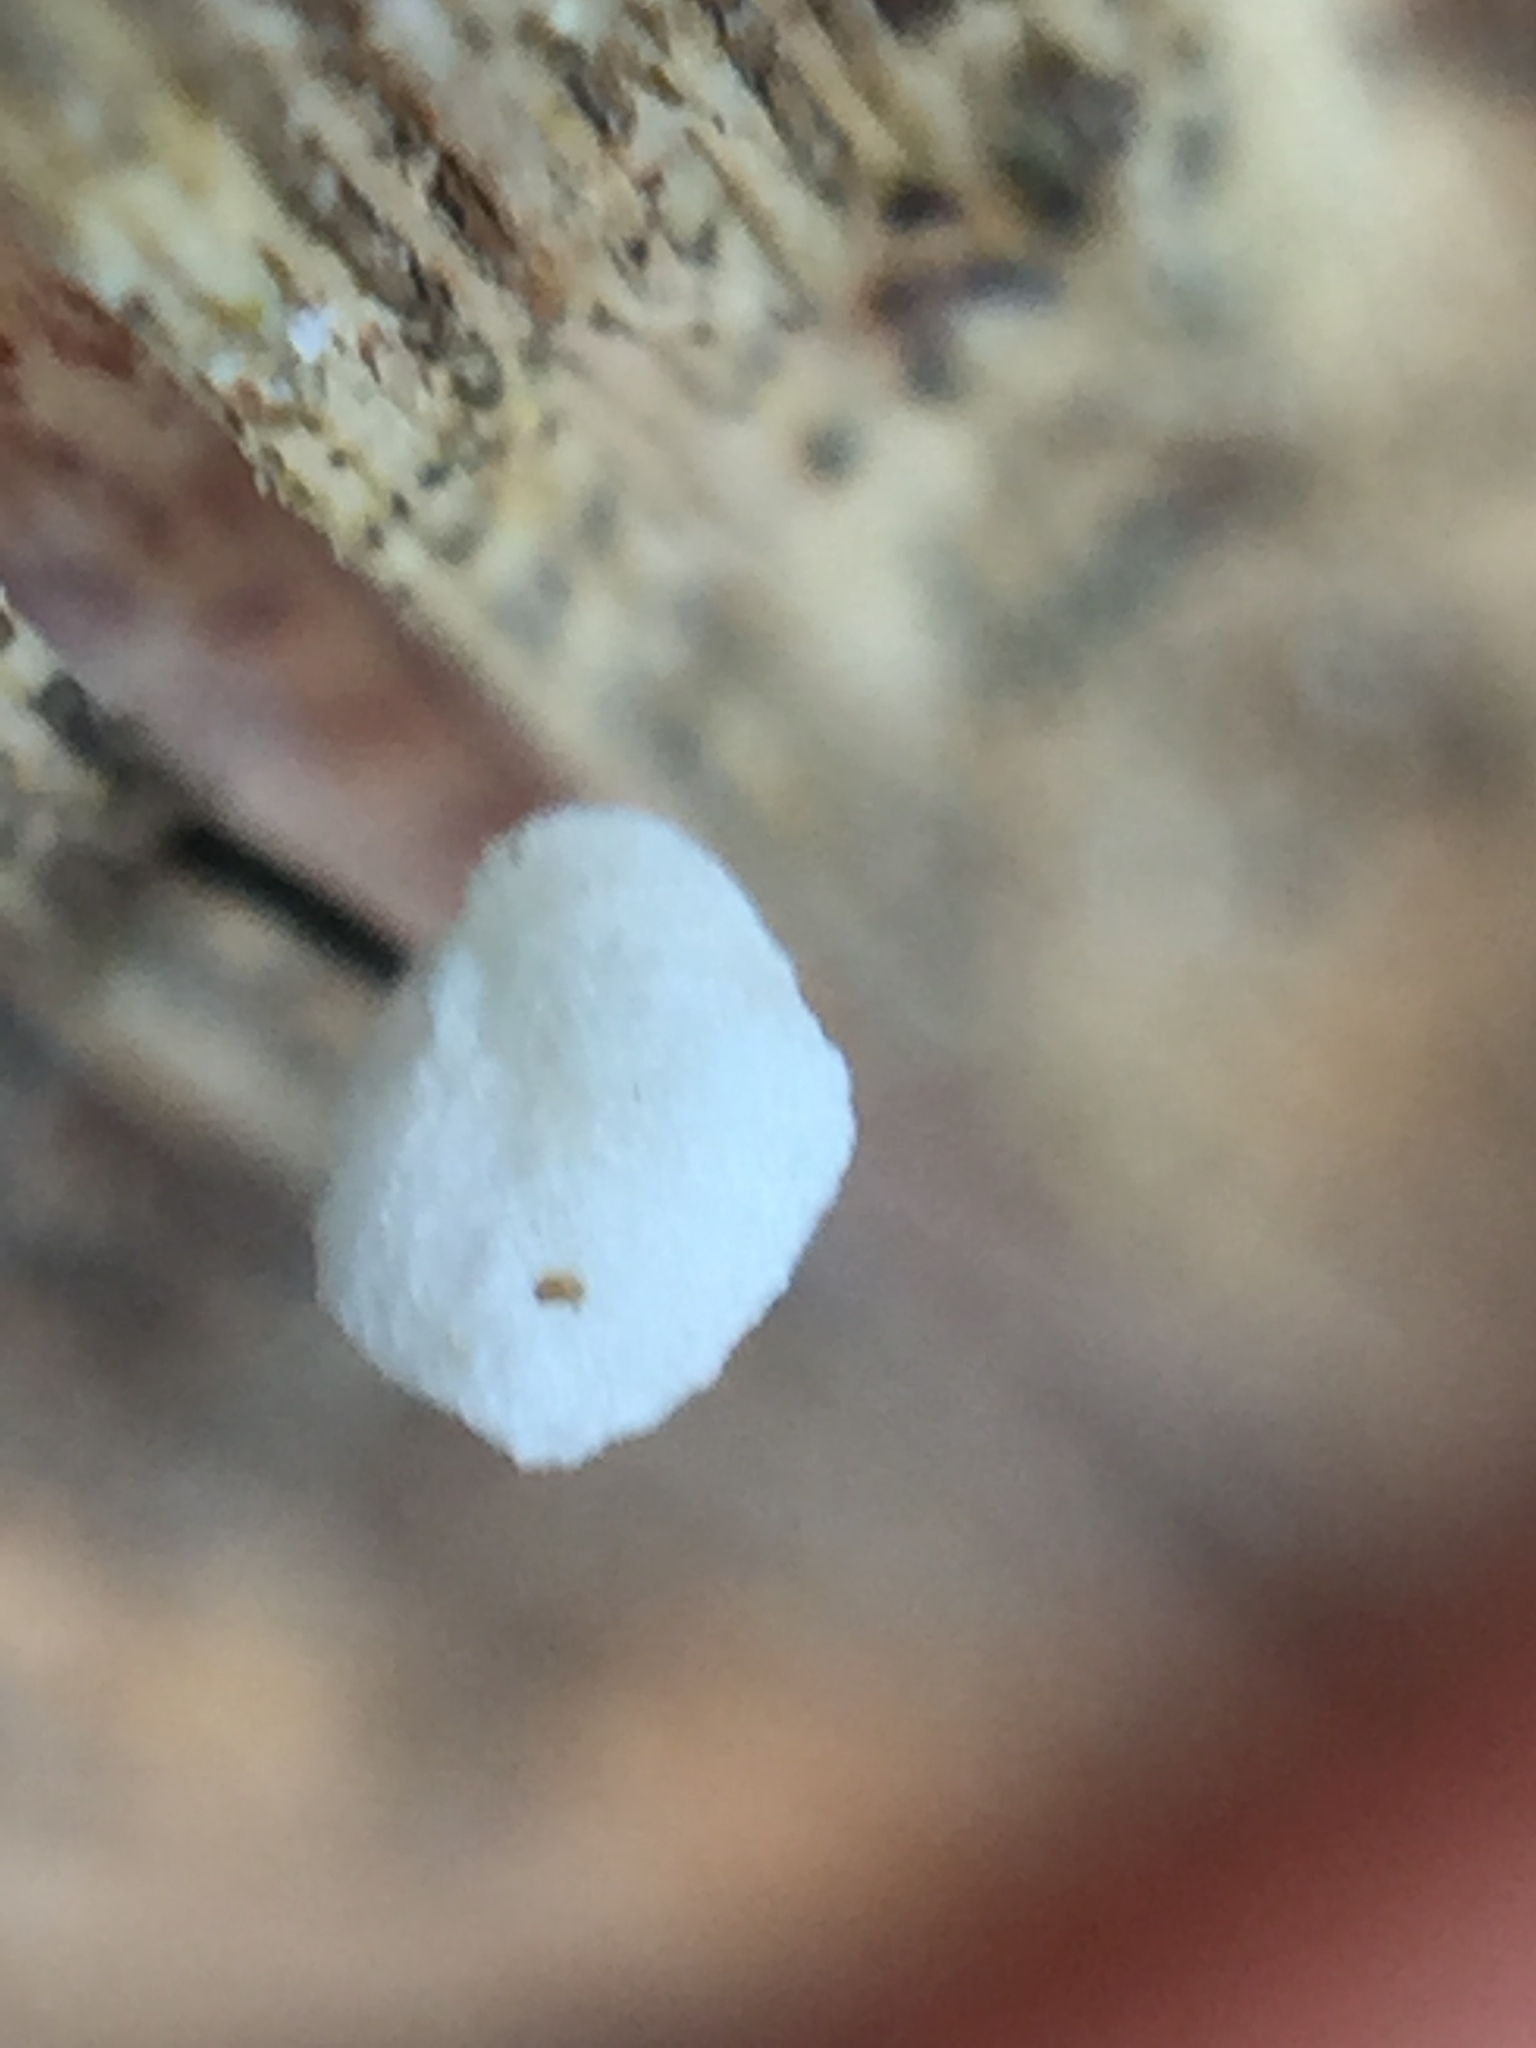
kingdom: Fungi
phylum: Basidiomycota
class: Agaricomycetes
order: Agaricales
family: Marasmiaceae
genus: Campanella
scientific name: Campanella
